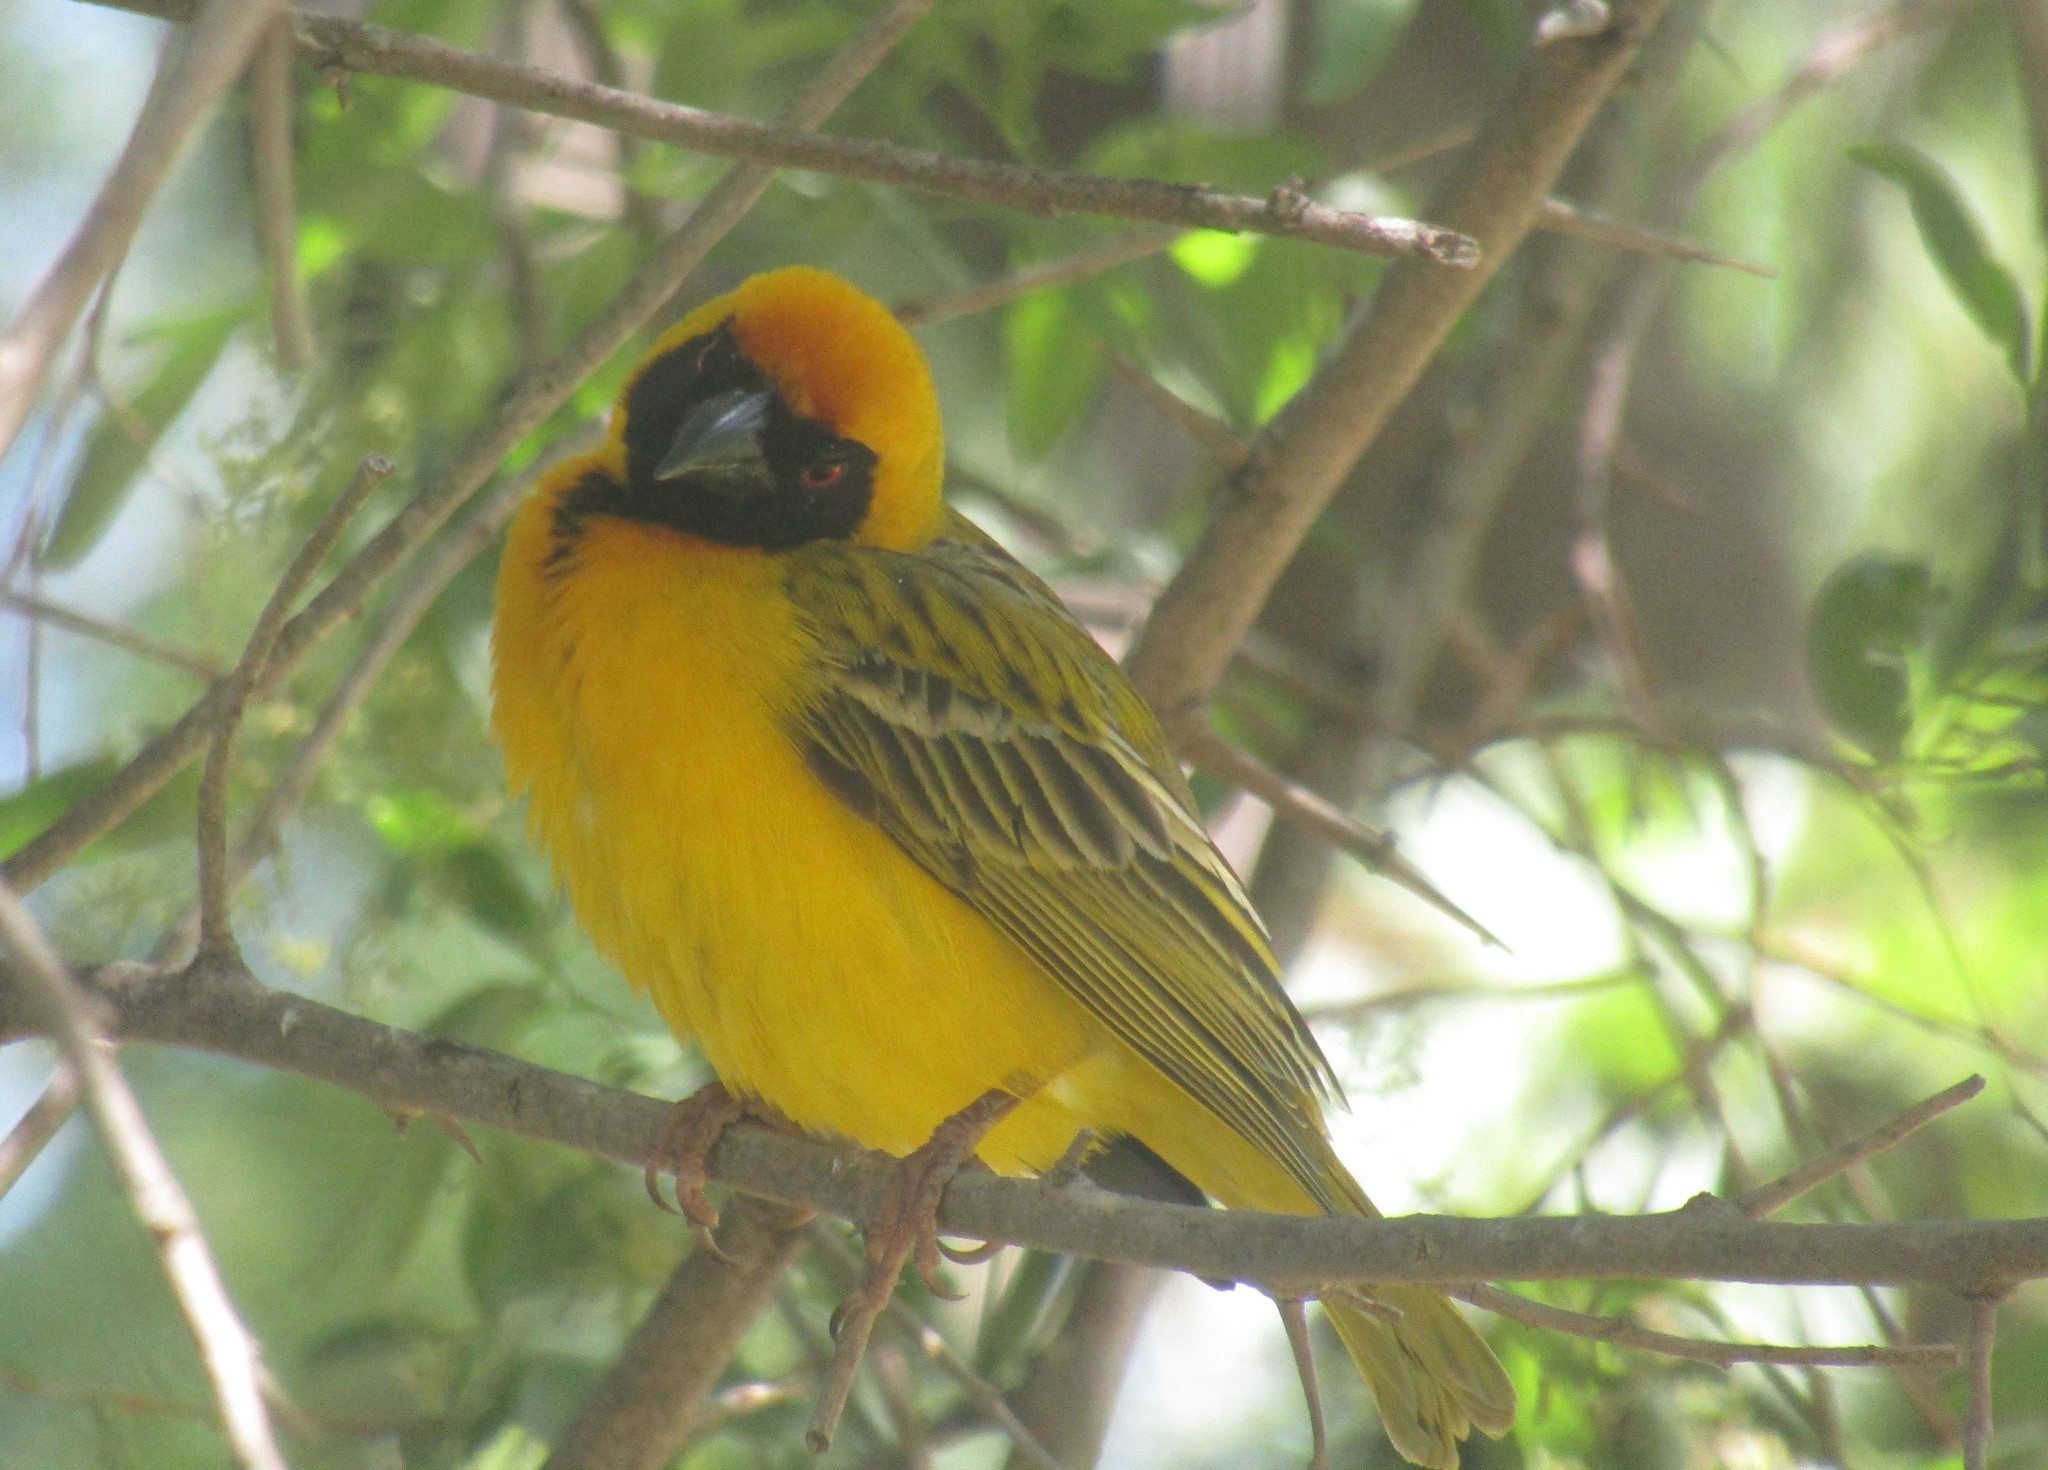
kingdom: Animalia
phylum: Chordata
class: Aves
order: Passeriformes
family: Ploceidae
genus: Ploceus
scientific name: Ploceus velatus
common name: Southern masked weaver
